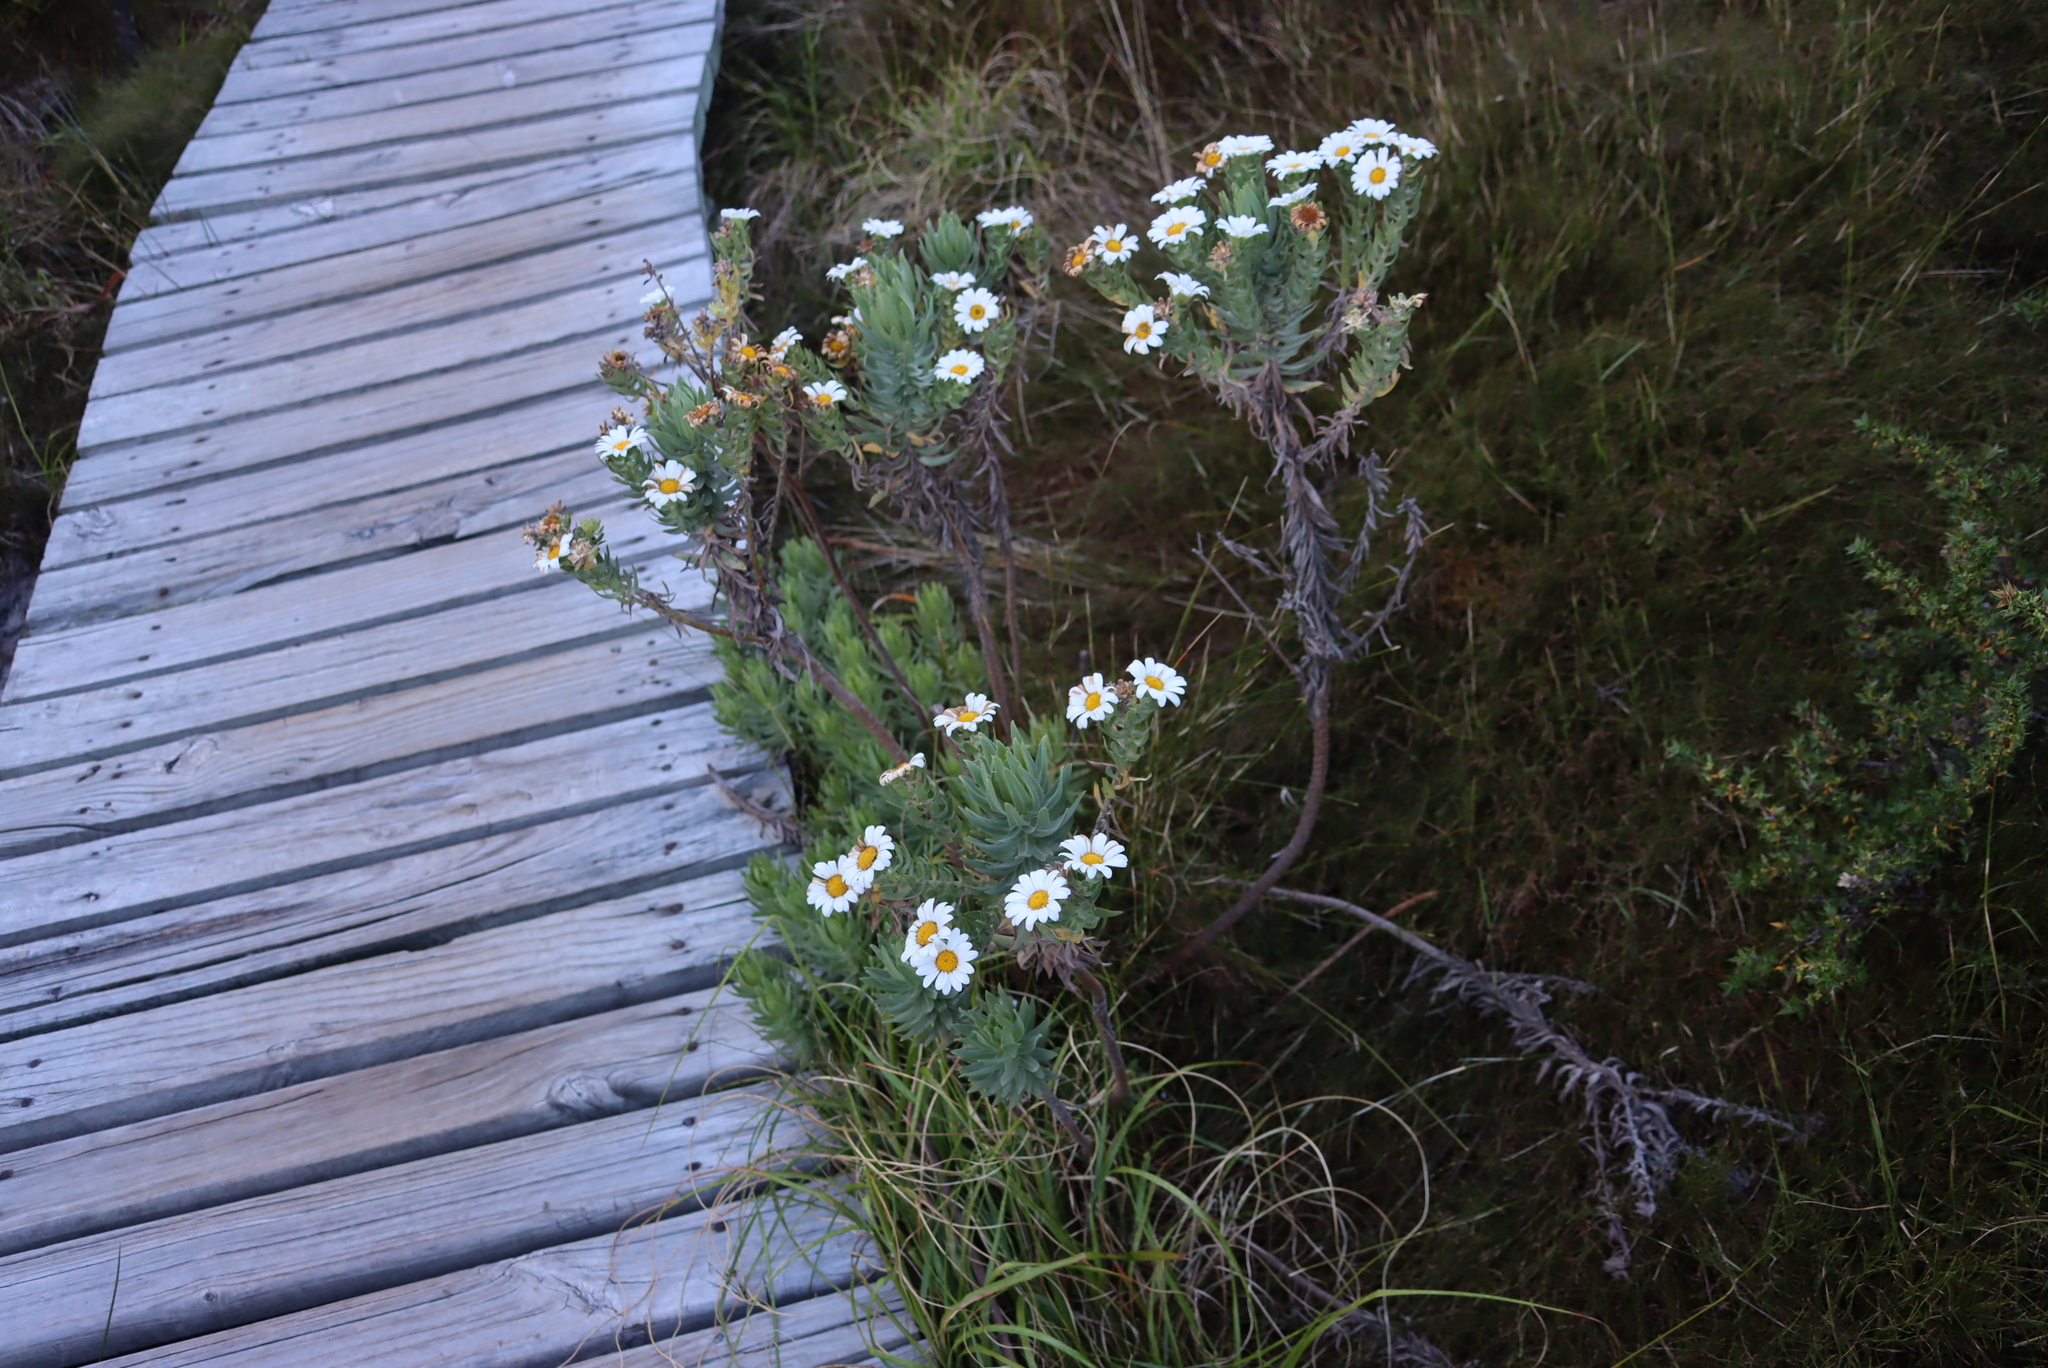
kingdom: Plantae
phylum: Tracheophyta
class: Magnoliopsida
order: Asterales
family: Asteraceae
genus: Osmitopsis
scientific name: Osmitopsis asteriscoides
